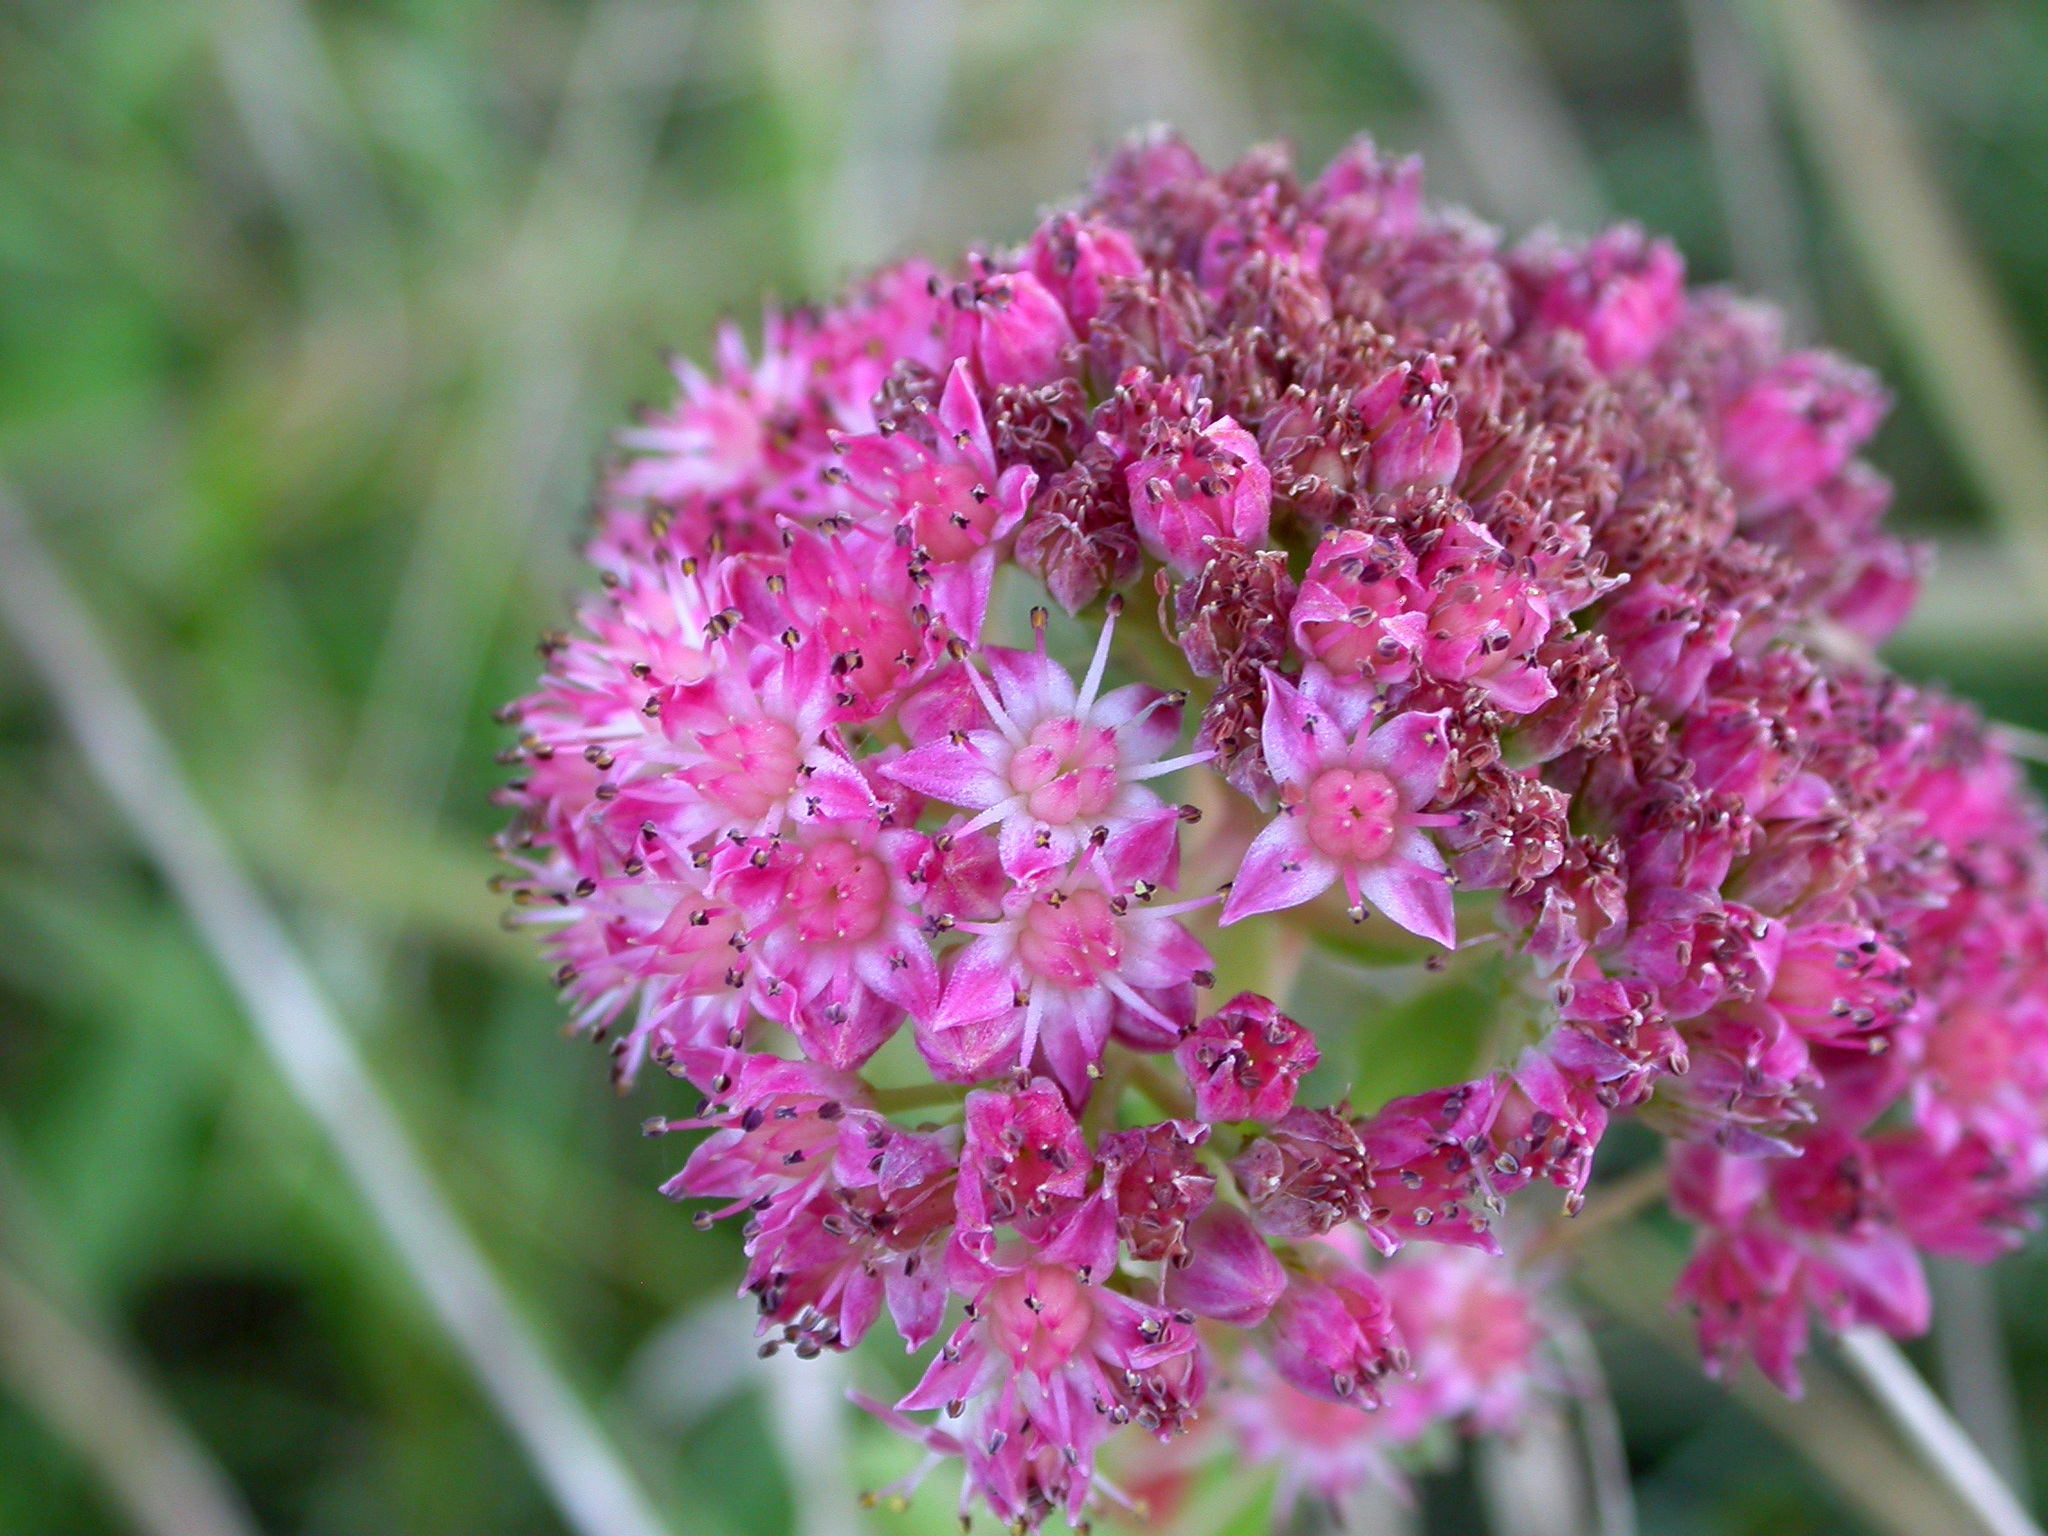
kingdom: Plantae
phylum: Tracheophyta
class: Magnoliopsida
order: Saxifragales
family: Crassulaceae
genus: Hylotelephium
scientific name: Hylotelephium telephium
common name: Live-forever
